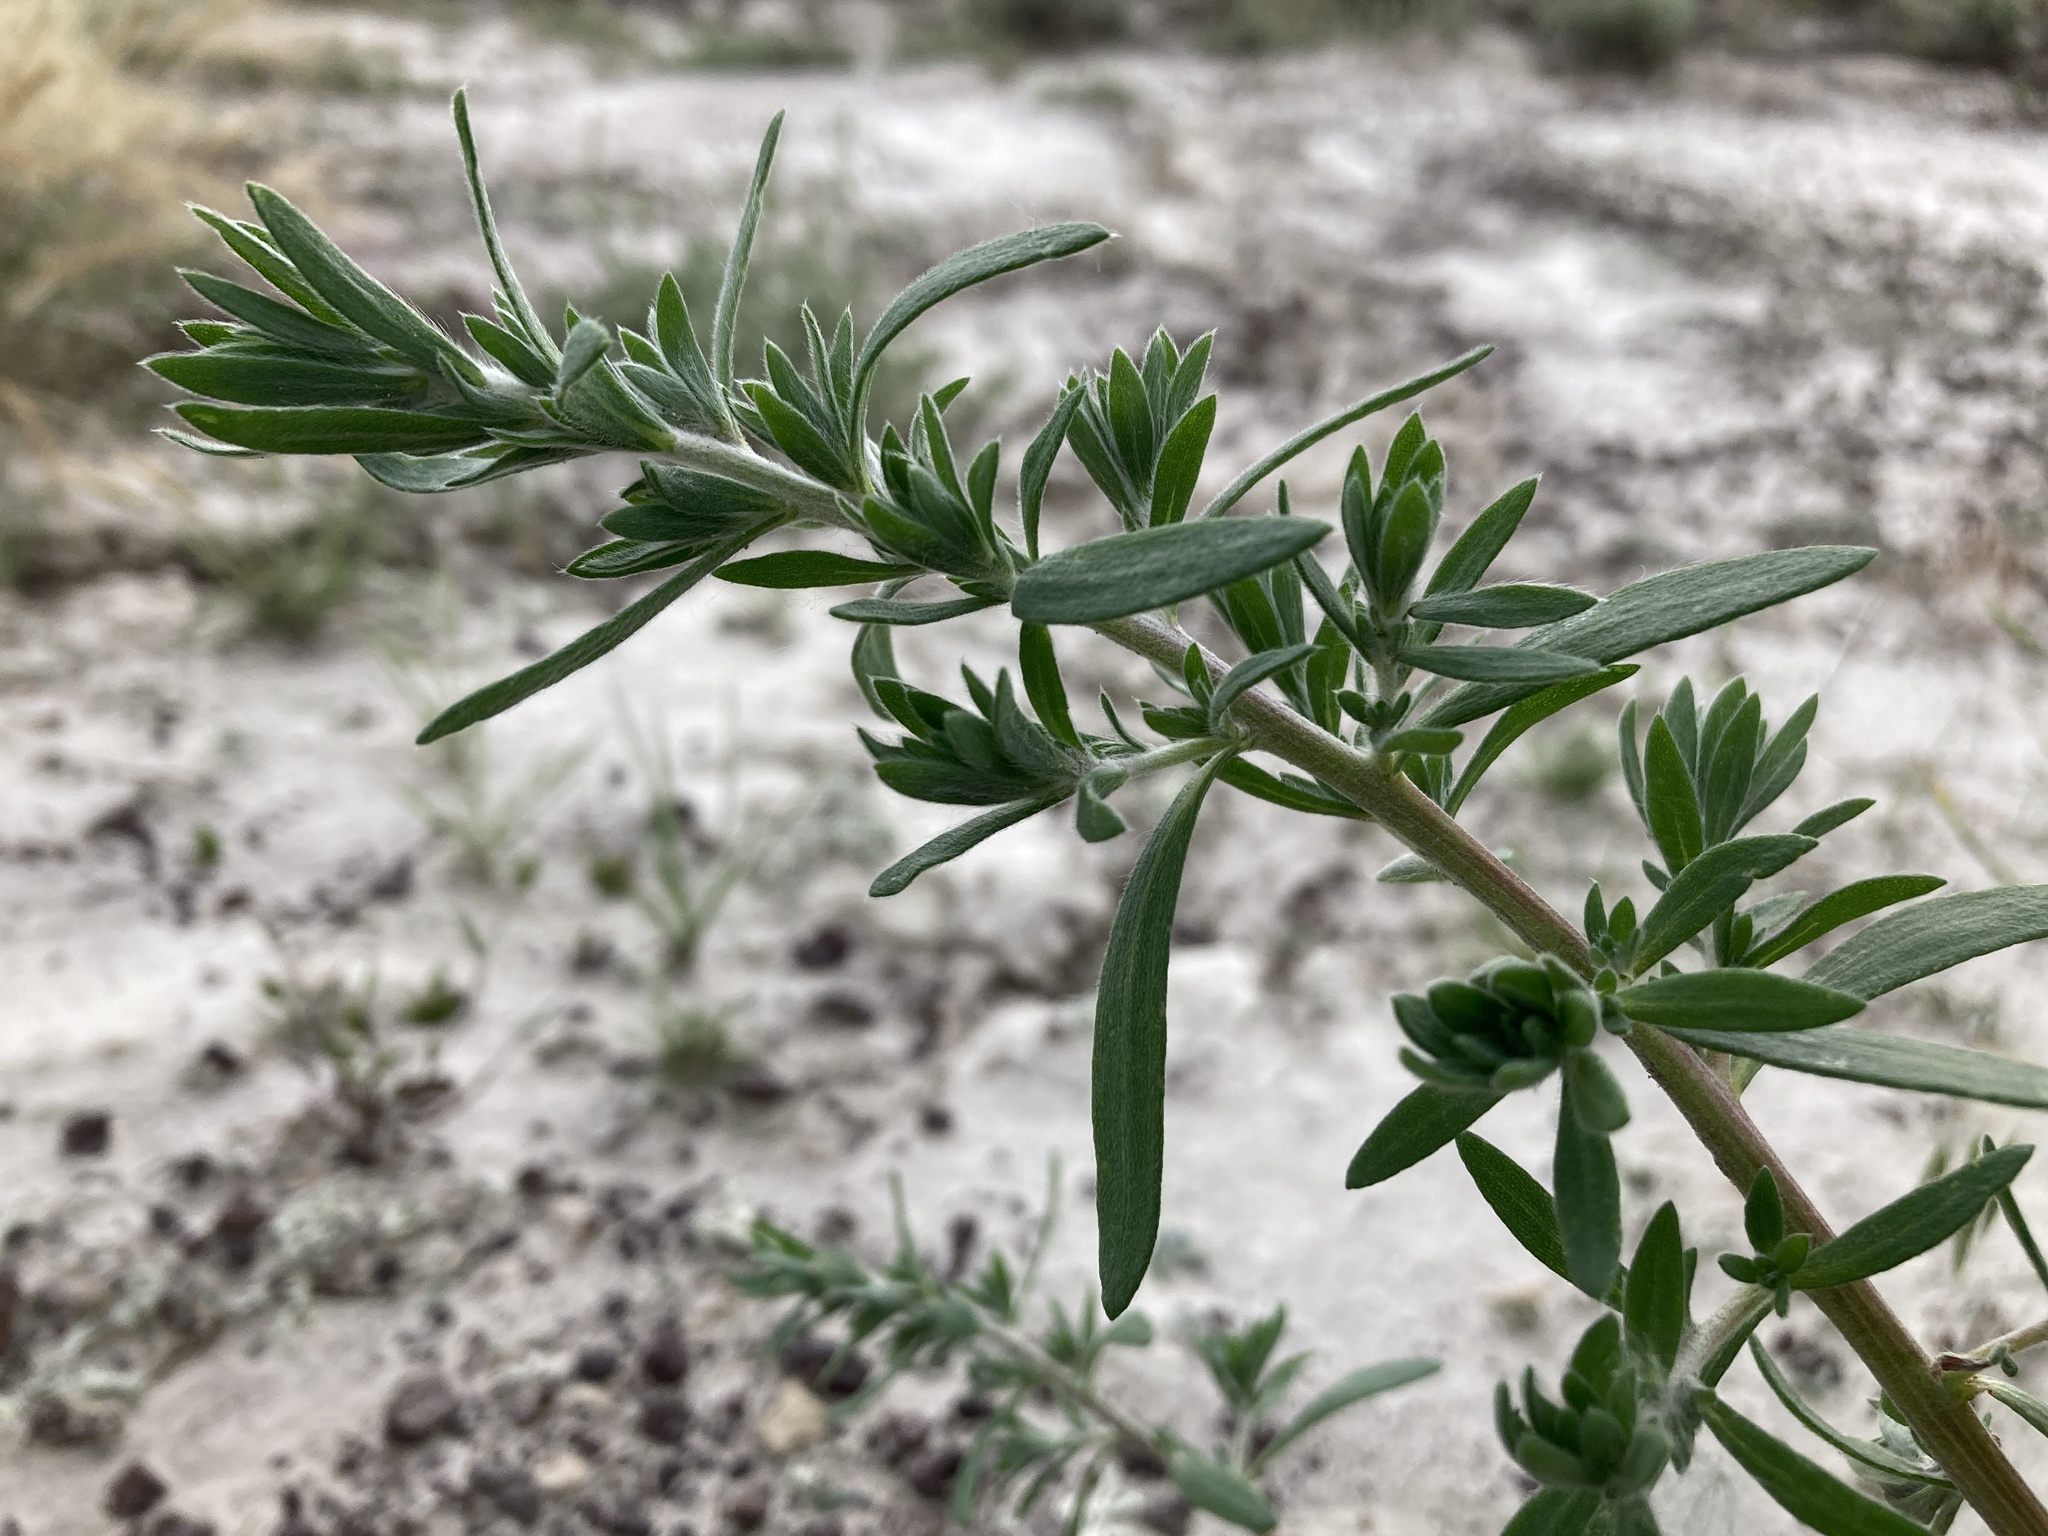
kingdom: Plantae
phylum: Tracheophyta
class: Magnoliopsida
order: Caryophyllales
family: Amaranthaceae
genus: Bassia
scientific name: Bassia scoparia
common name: Belvedere
